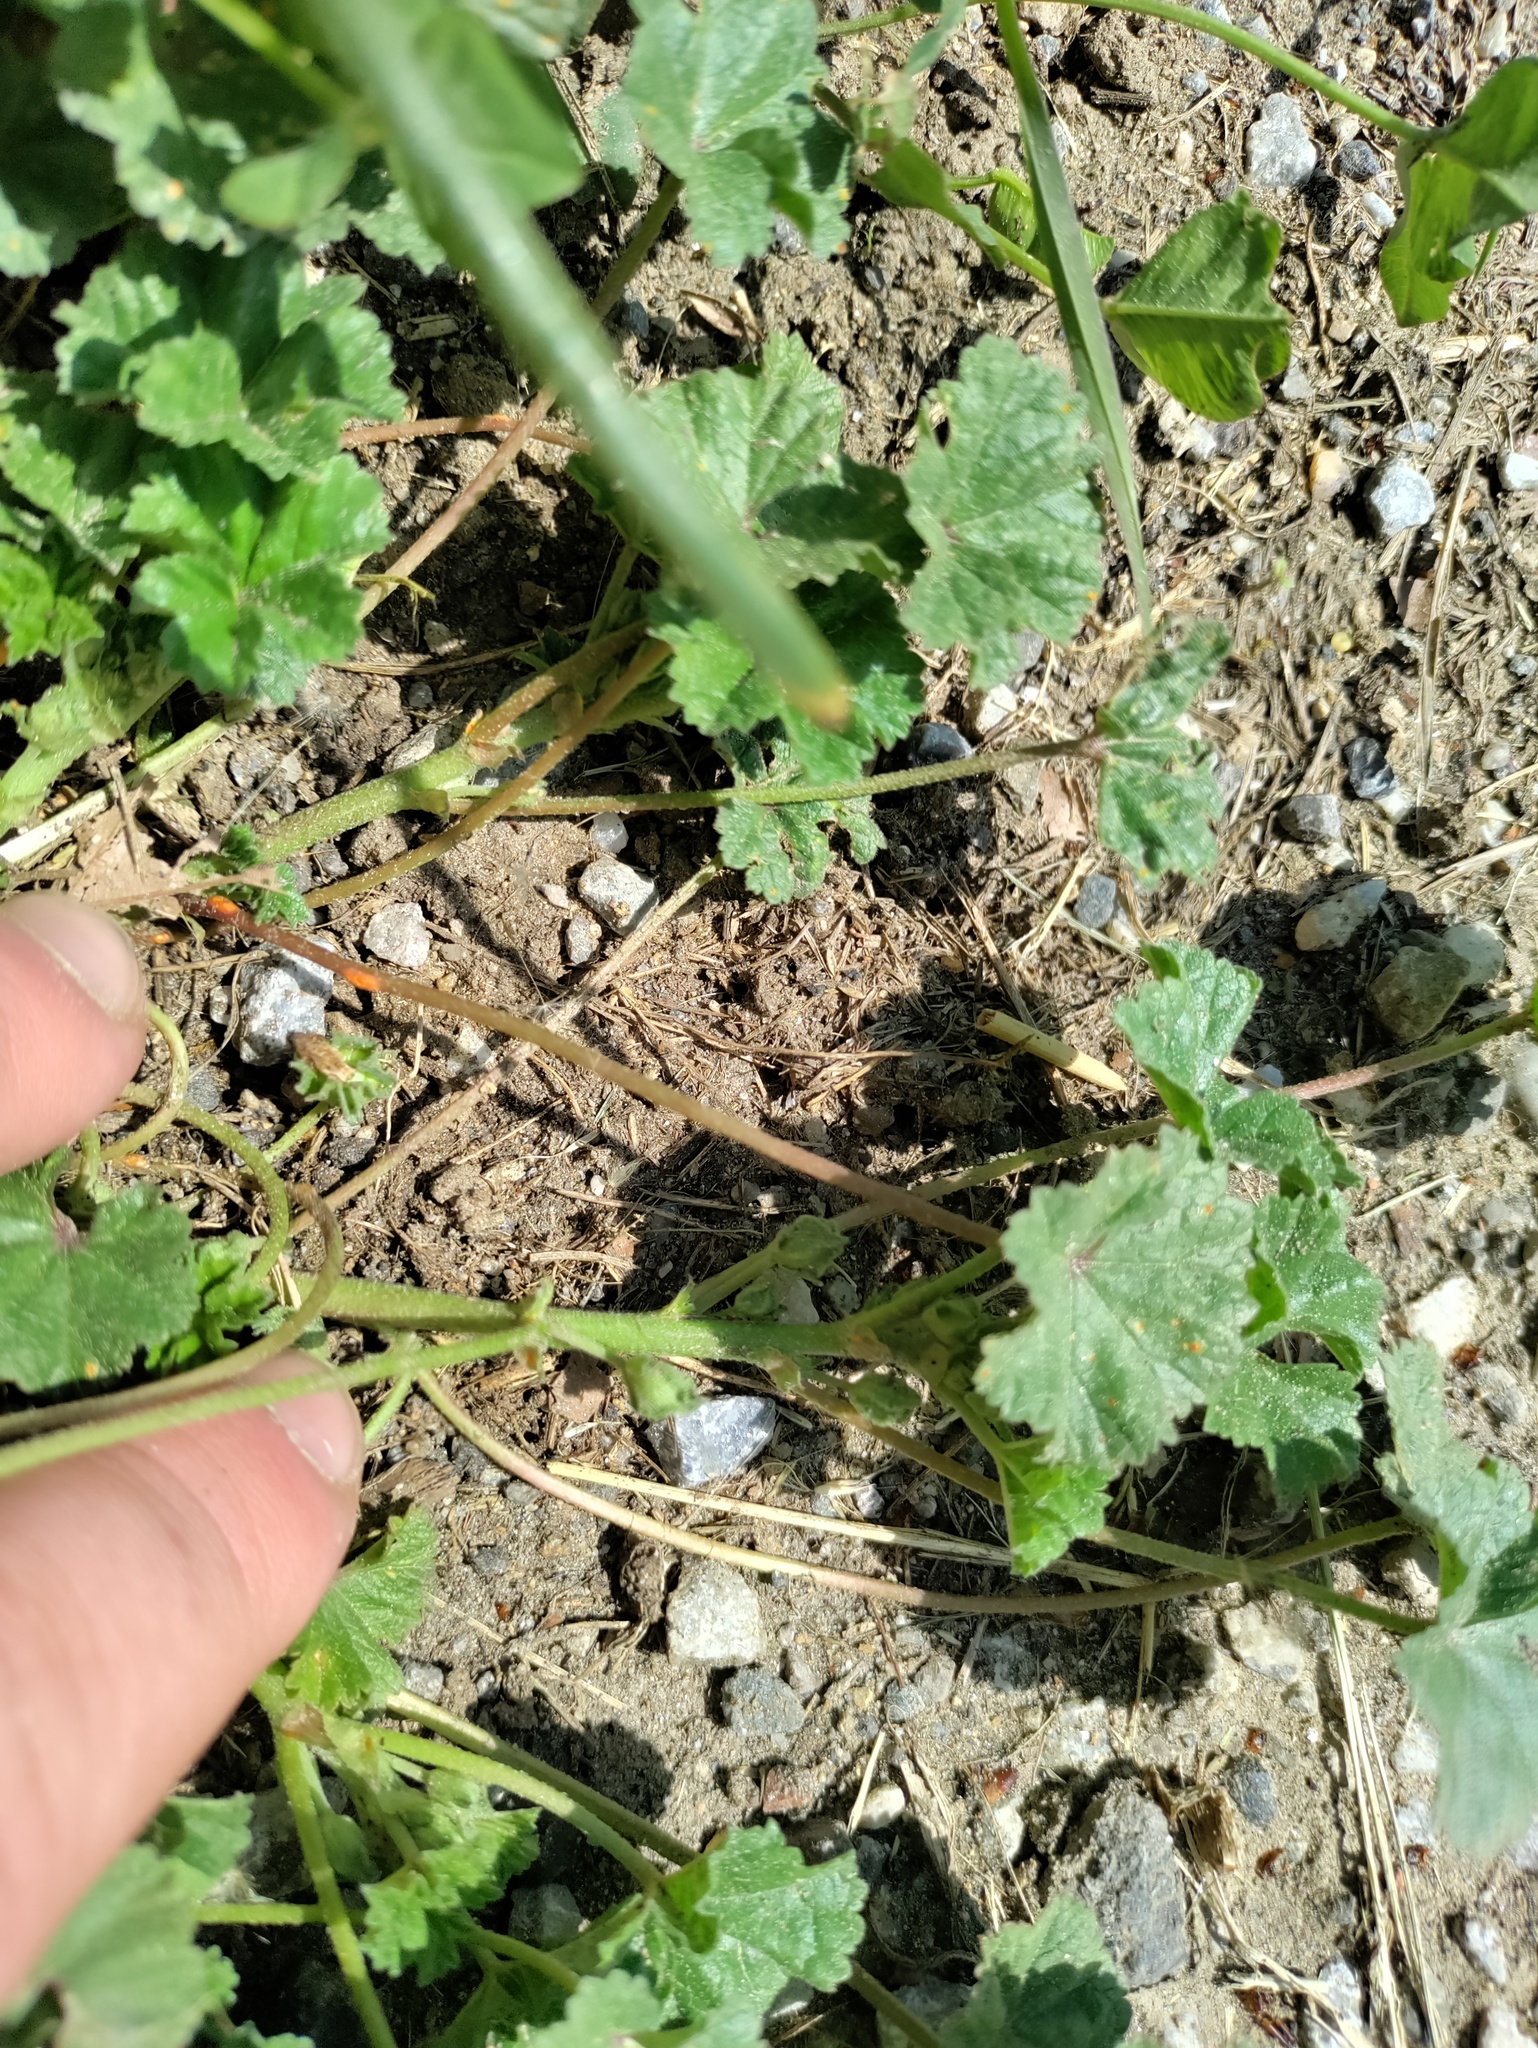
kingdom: Plantae
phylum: Tracheophyta
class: Magnoliopsida
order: Malvales
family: Malvaceae
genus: Malva
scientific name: Malva neglecta
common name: Common mallow
